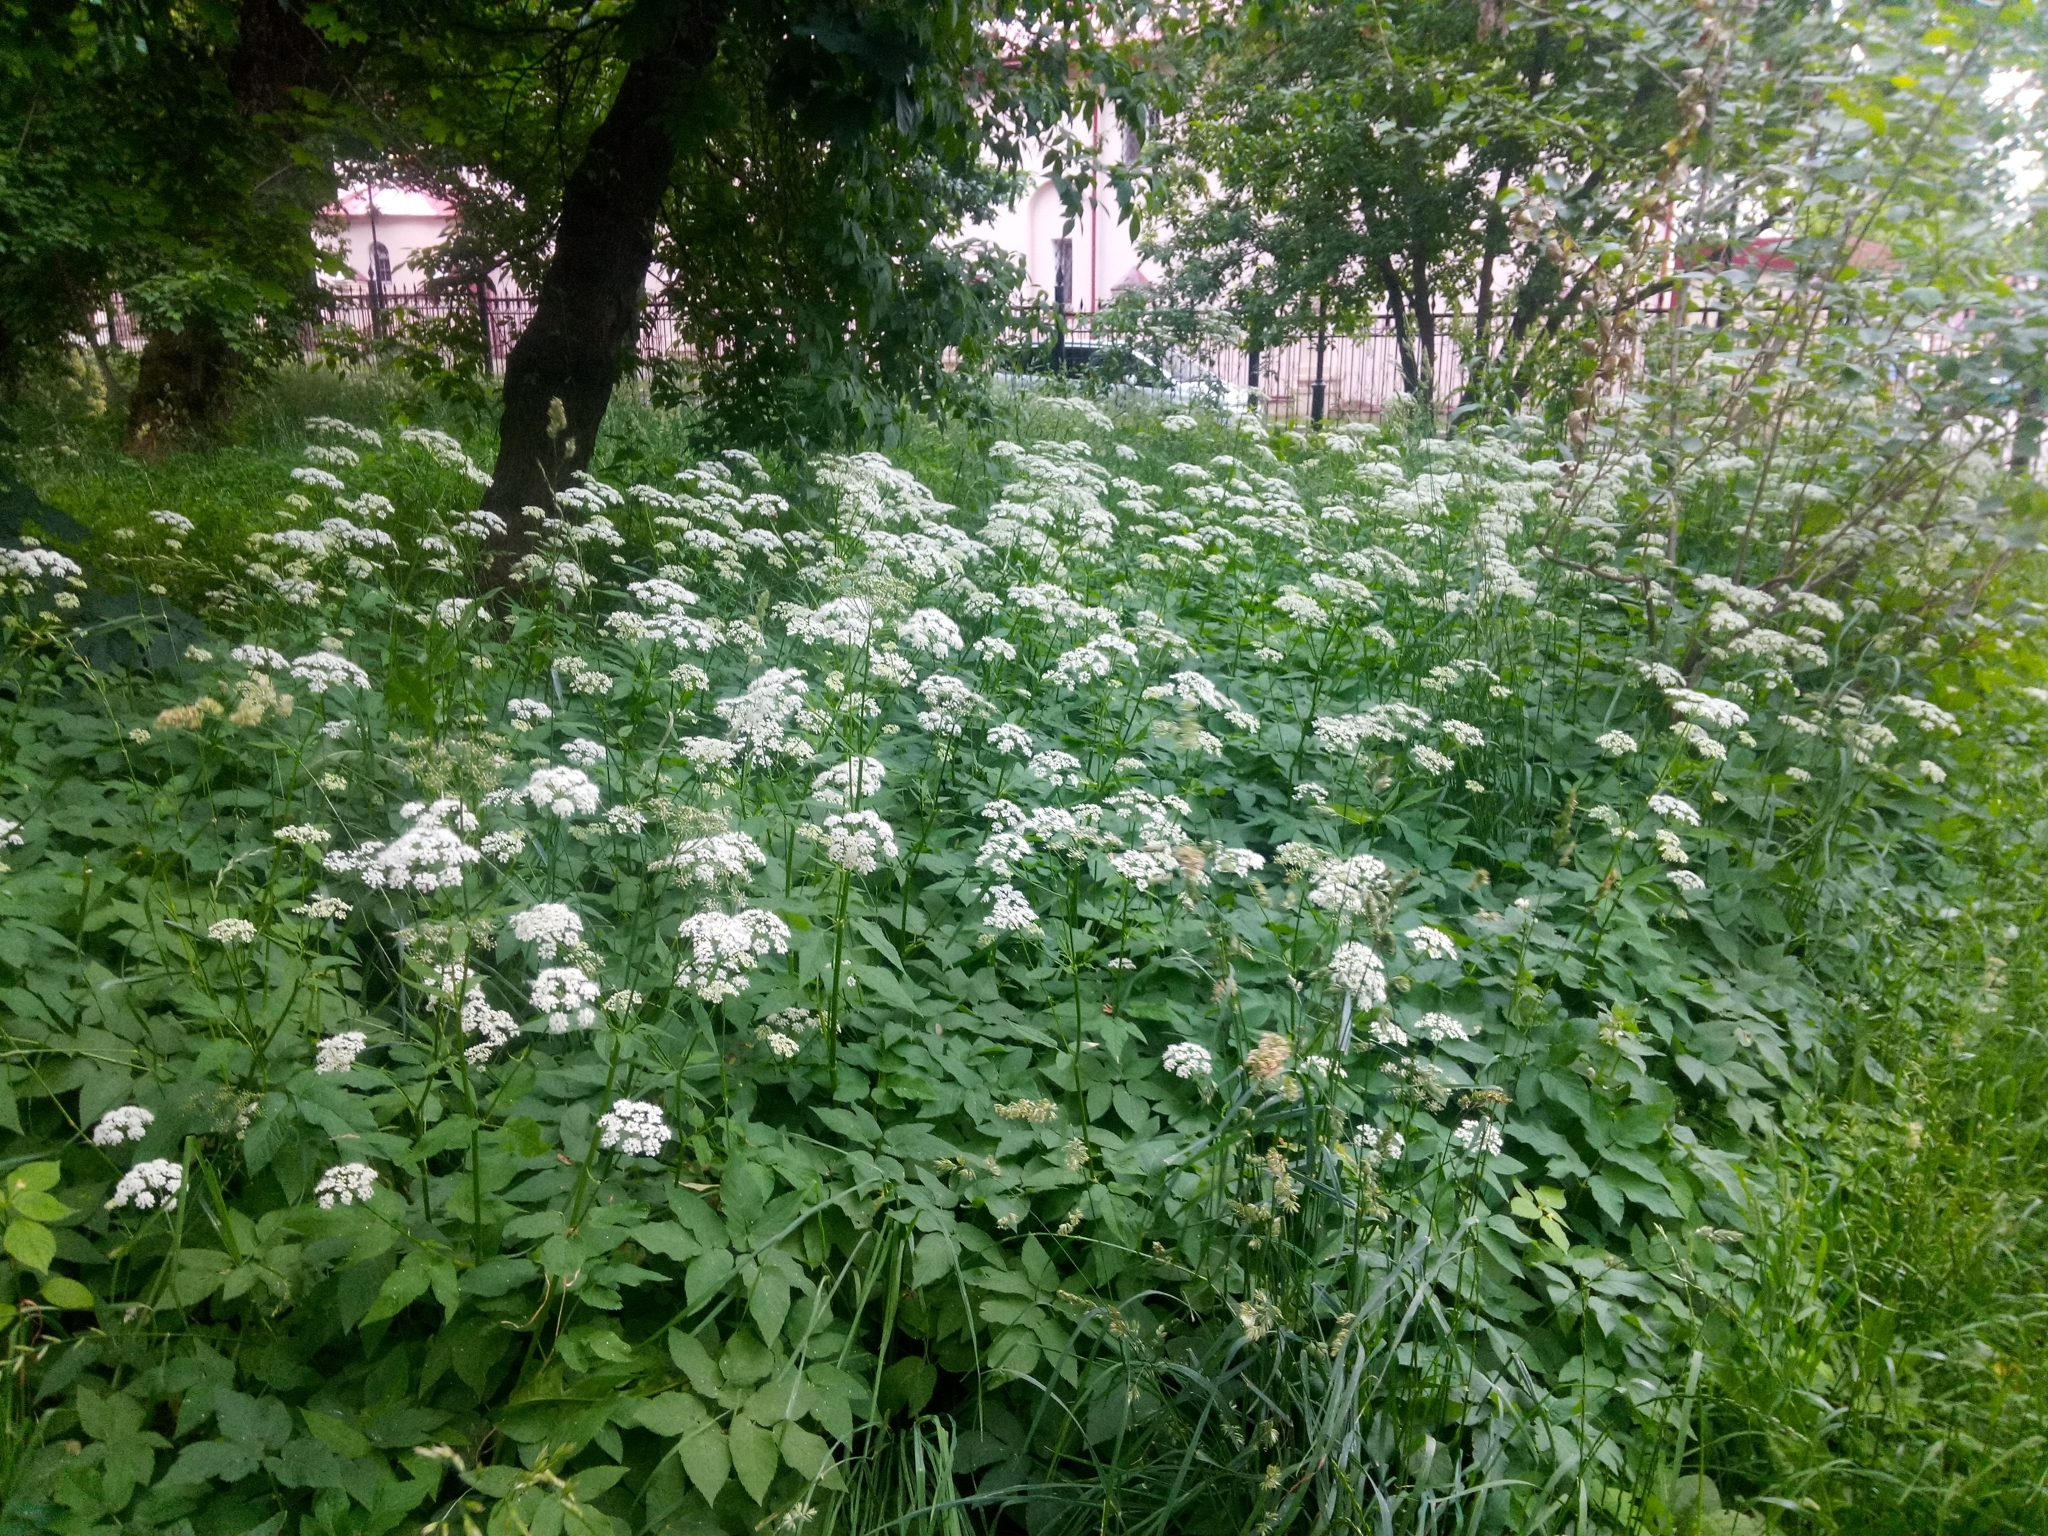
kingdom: Plantae
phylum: Tracheophyta
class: Magnoliopsida
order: Apiales
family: Apiaceae
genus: Aegopodium
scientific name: Aegopodium podagraria
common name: Ground-elder
